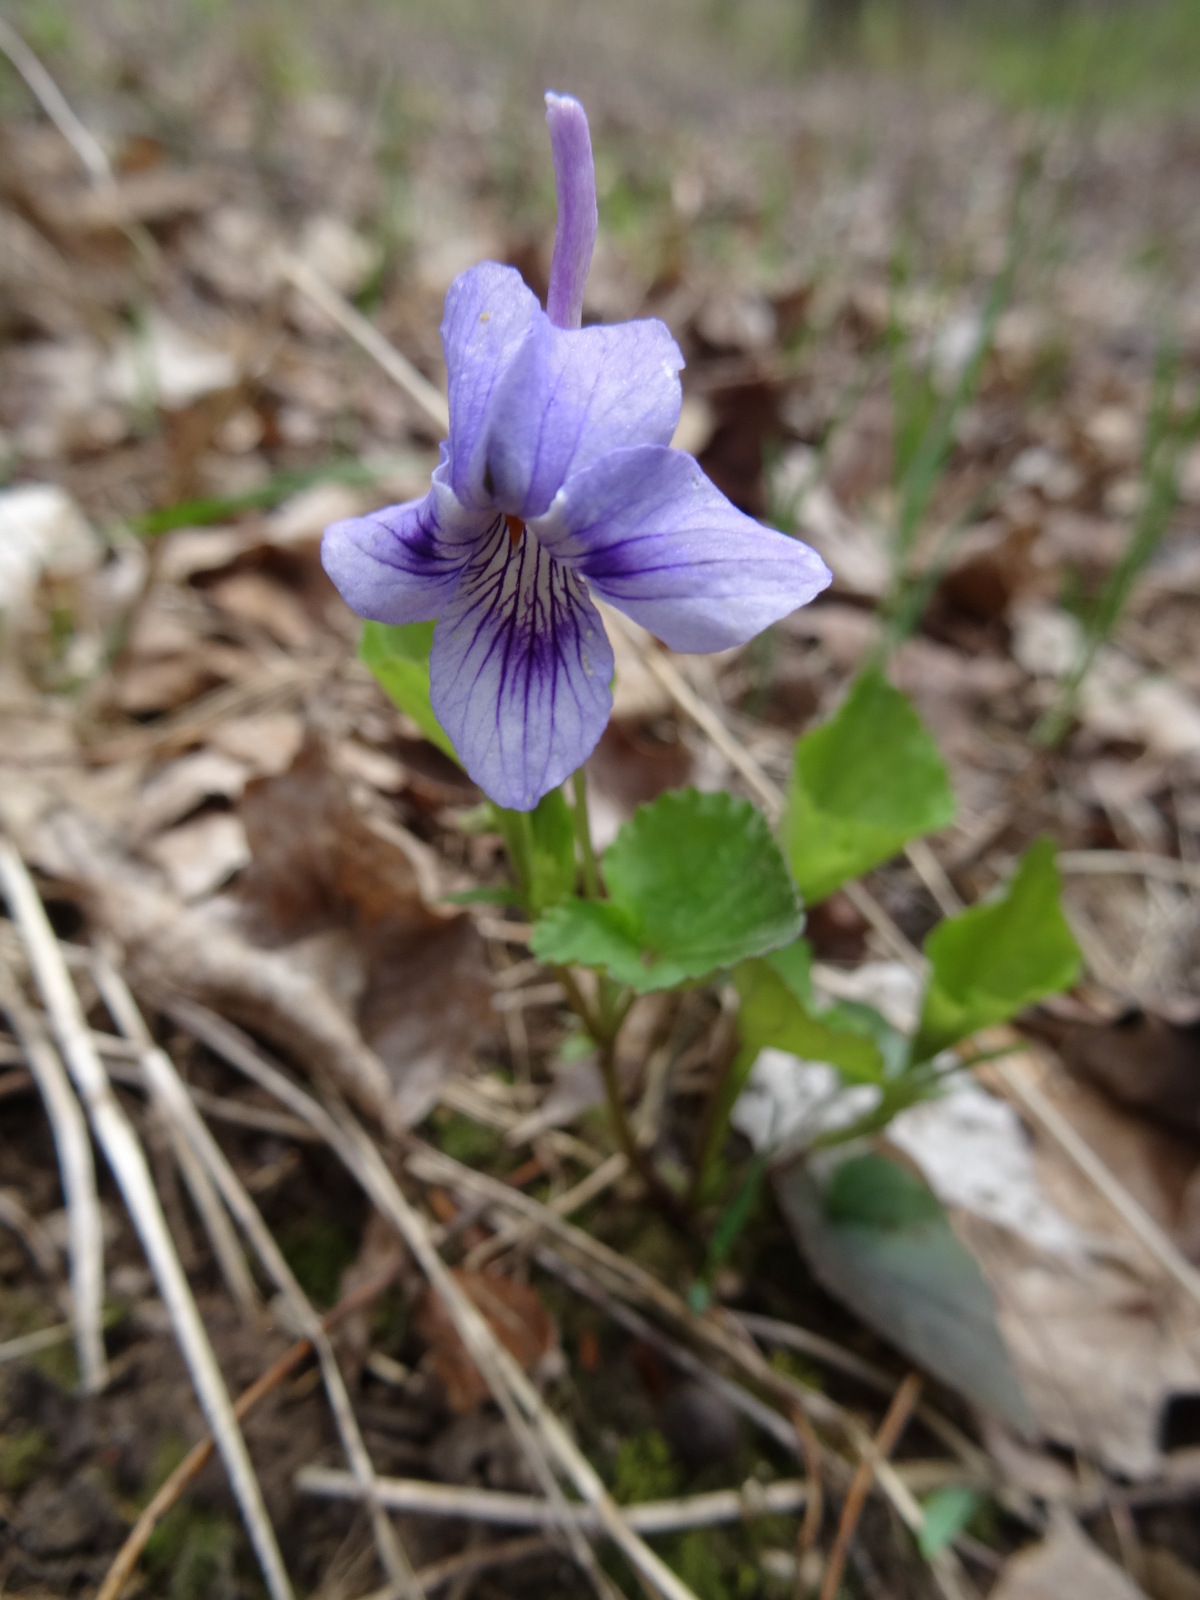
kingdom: Plantae
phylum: Tracheophyta
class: Magnoliopsida
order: Malpighiales
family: Violaceae
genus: Viola
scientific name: Viola rostrata
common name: Long-spur violet
